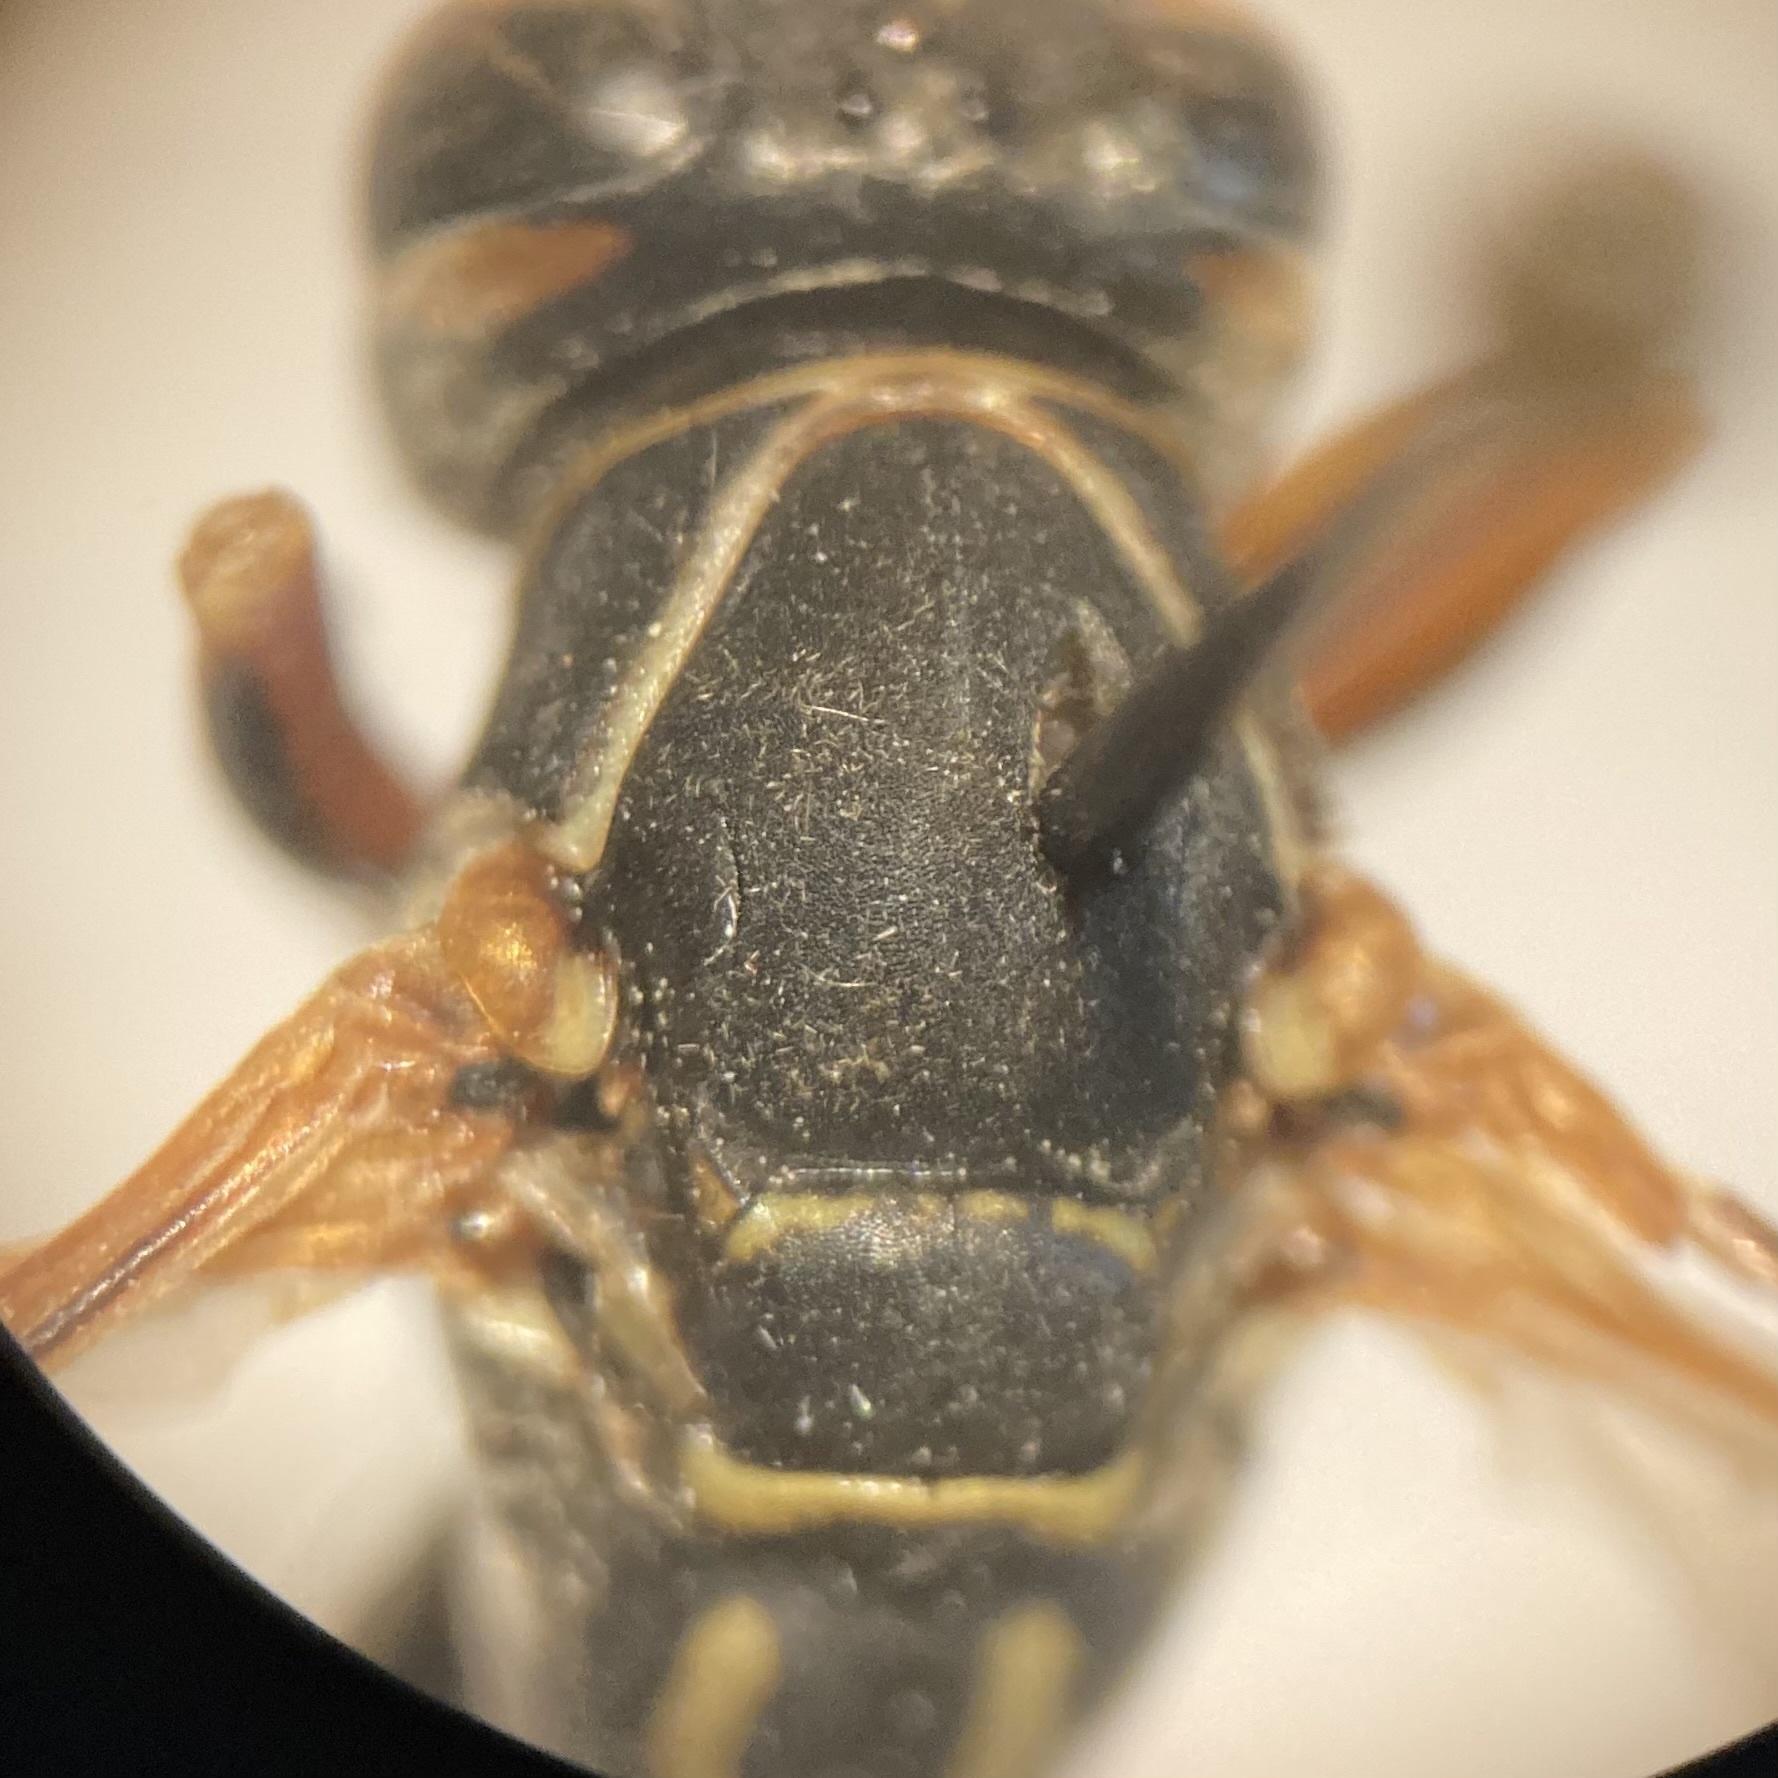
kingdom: Animalia
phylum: Arthropoda
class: Insecta
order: Hymenoptera
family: Eumenidae
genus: Polistes
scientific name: Polistes fuscatus
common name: Dark paper wasp
